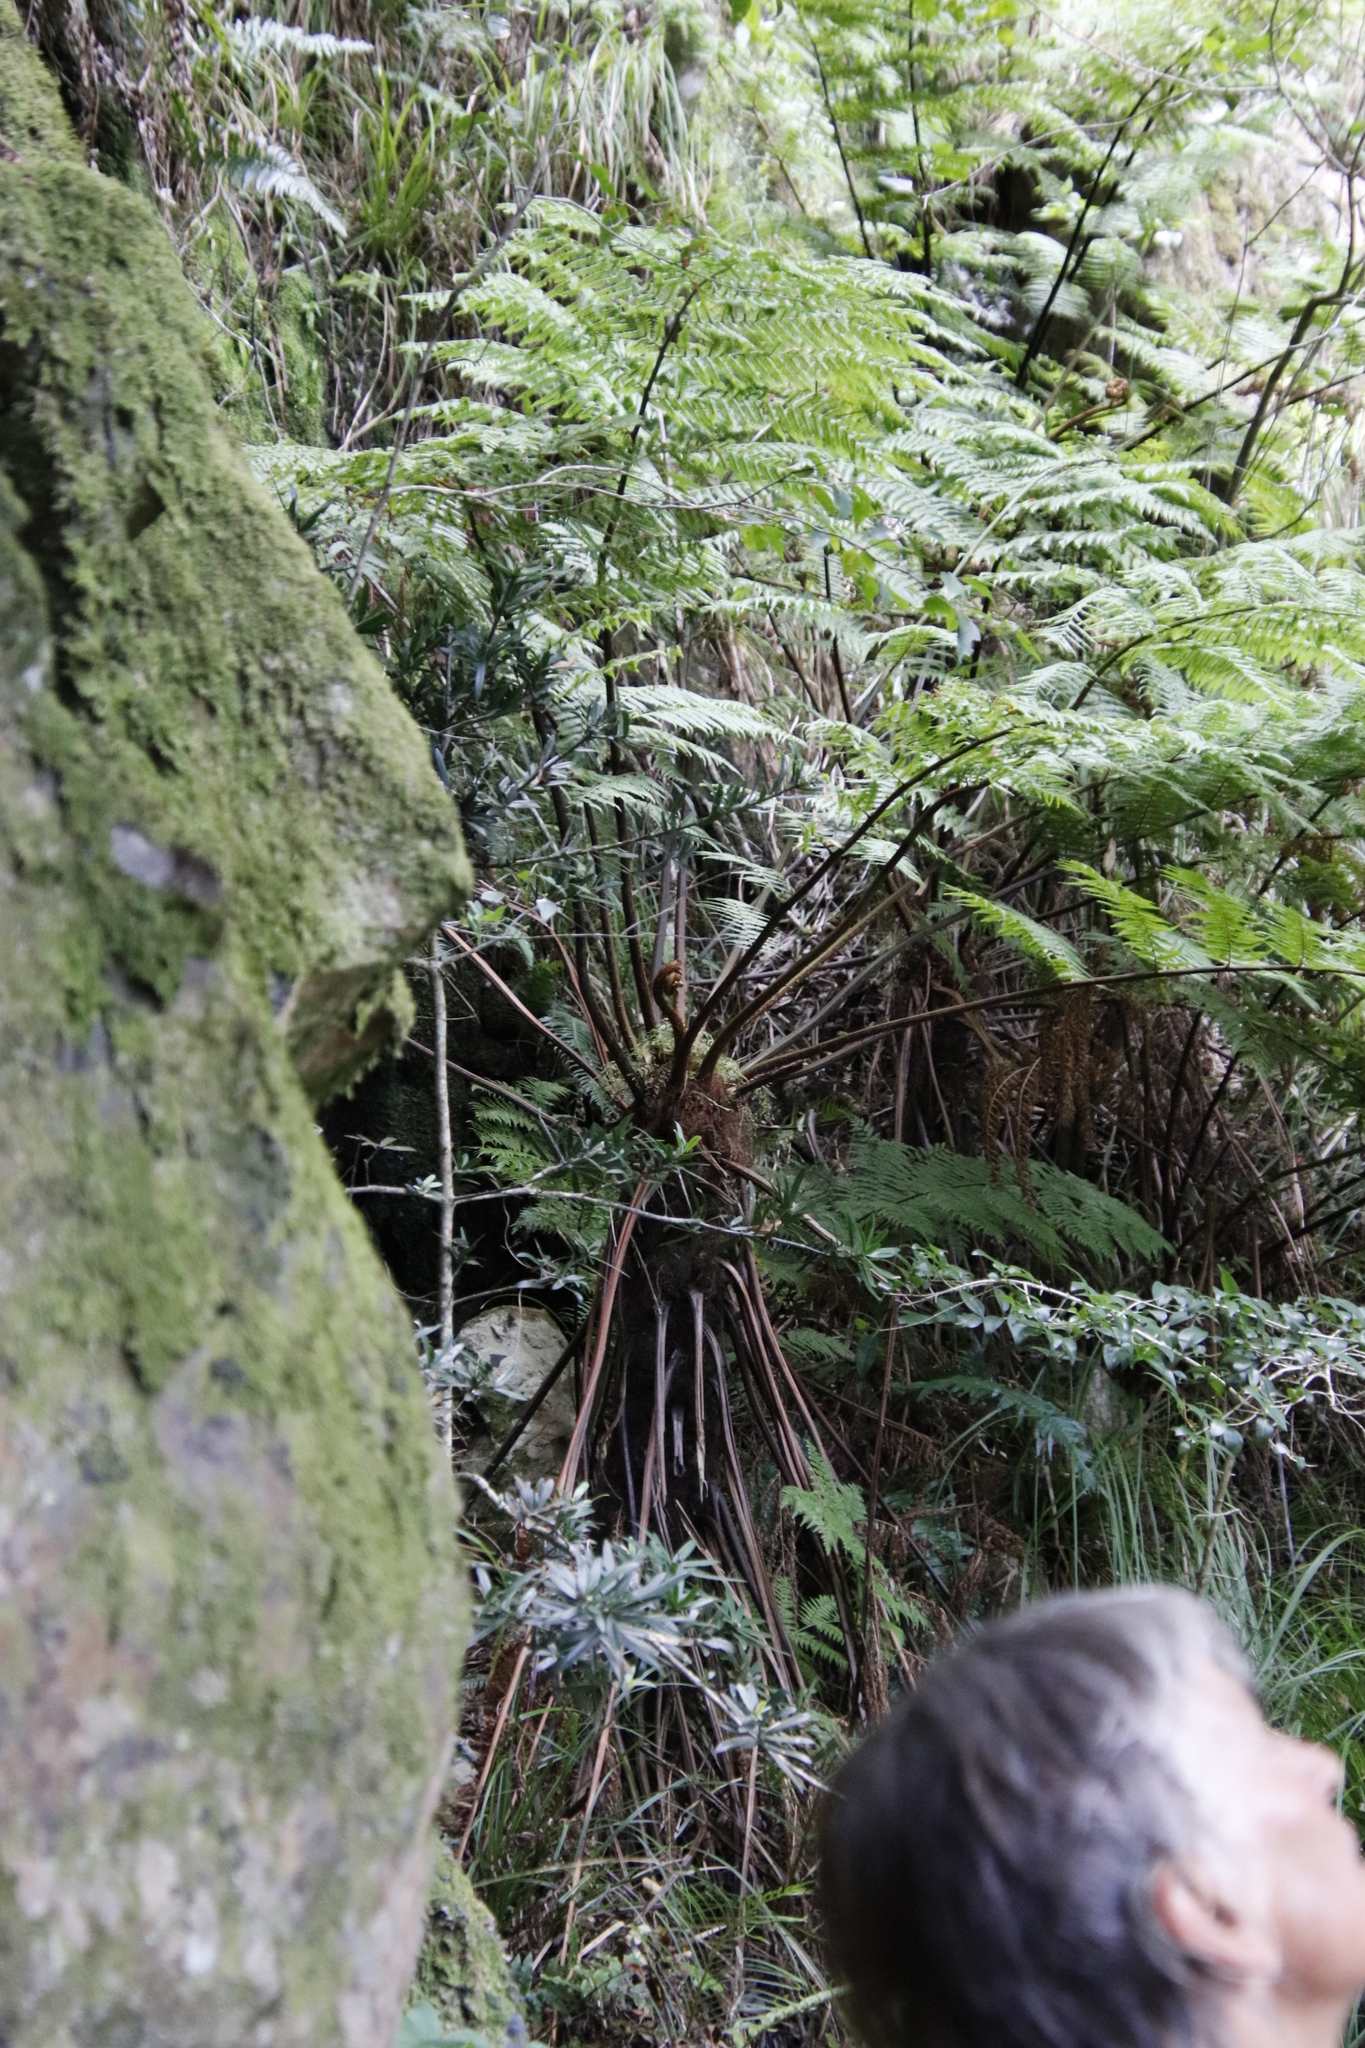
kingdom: Plantae
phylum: Tracheophyta
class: Polypodiopsida
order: Cyatheales
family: Cyatheaceae
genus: Gymnosphaera
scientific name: Gymnosphaera capensis
